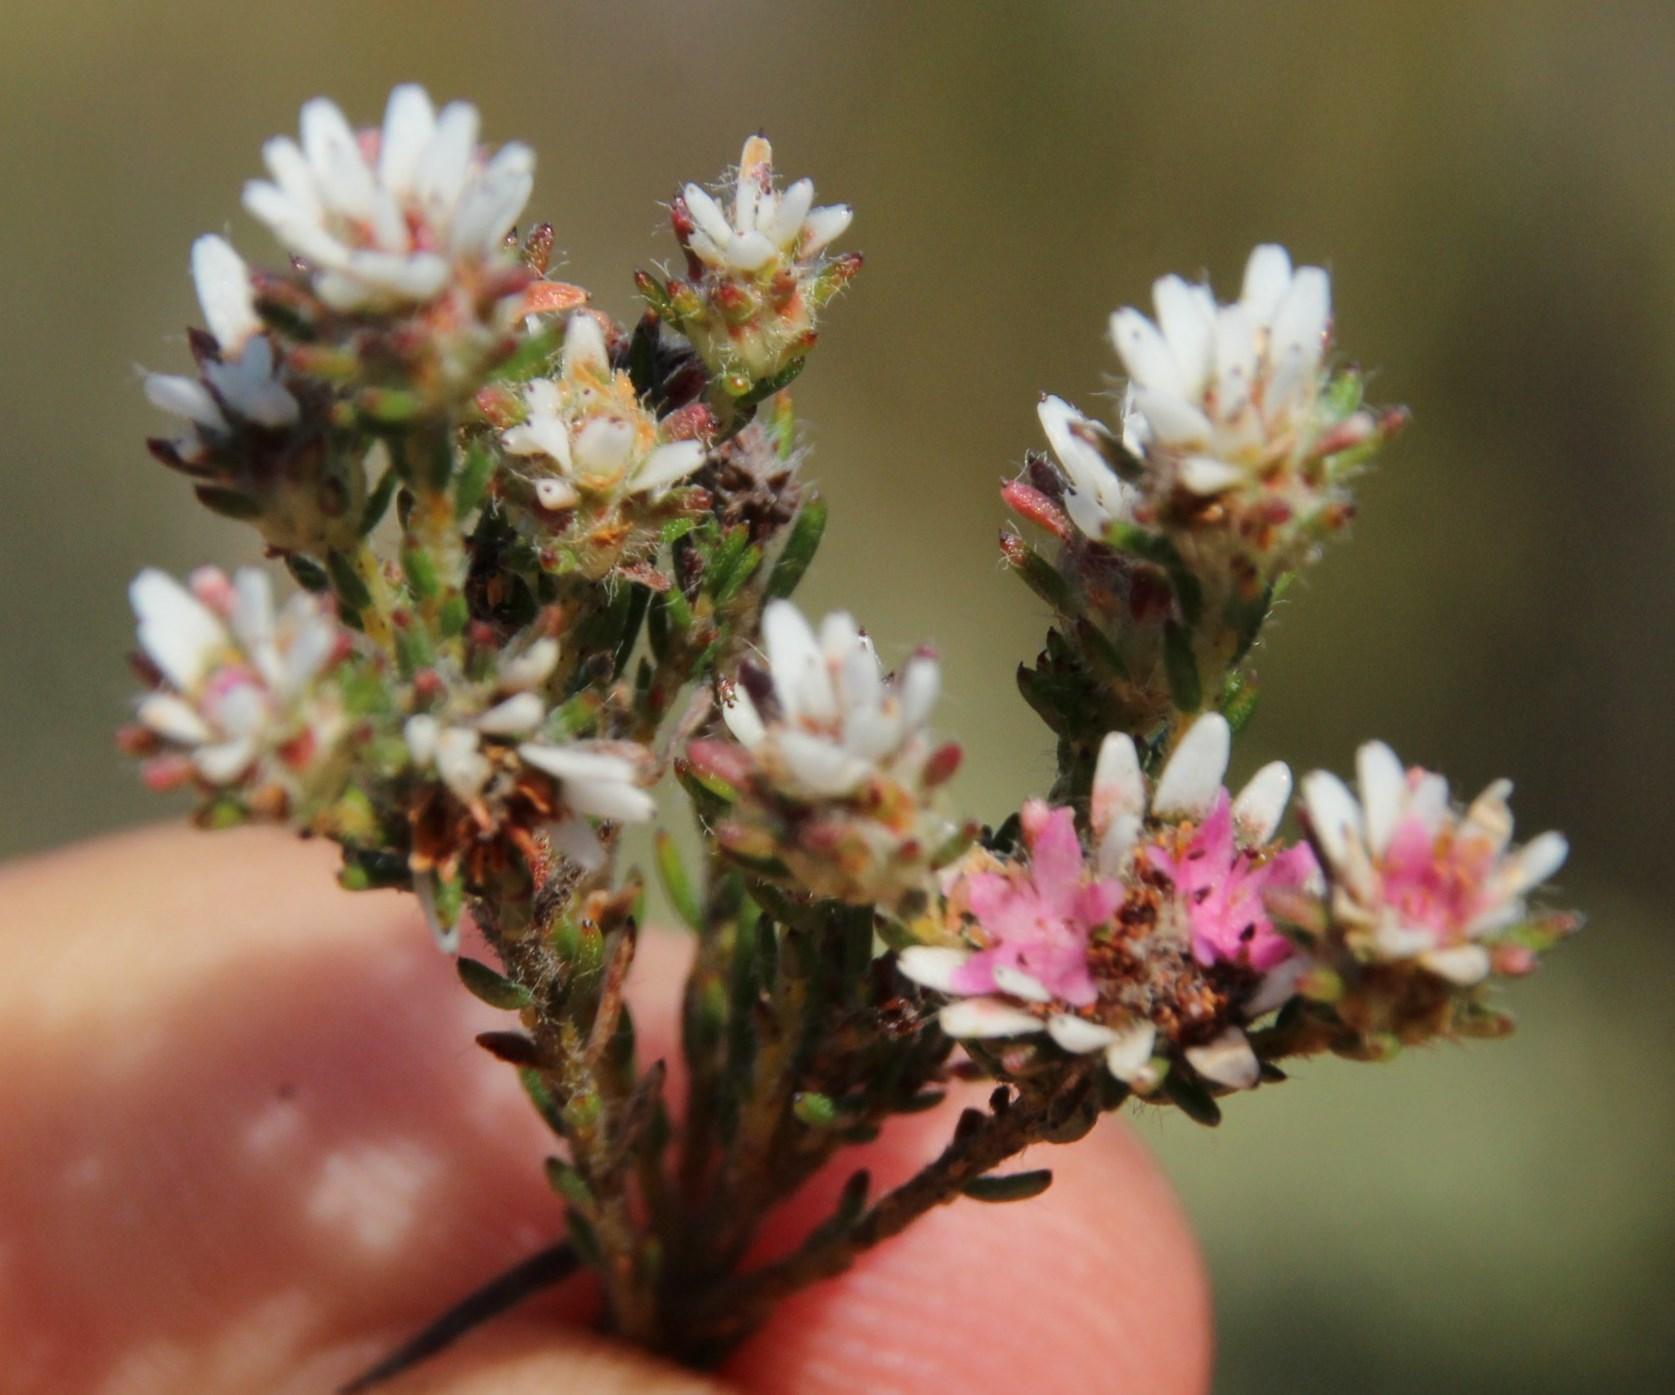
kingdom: Plantae
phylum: Tracheophyta
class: Magnoliopsida
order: Bruniales
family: Bruniaceae
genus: Staavia
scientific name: Staavia radiata
